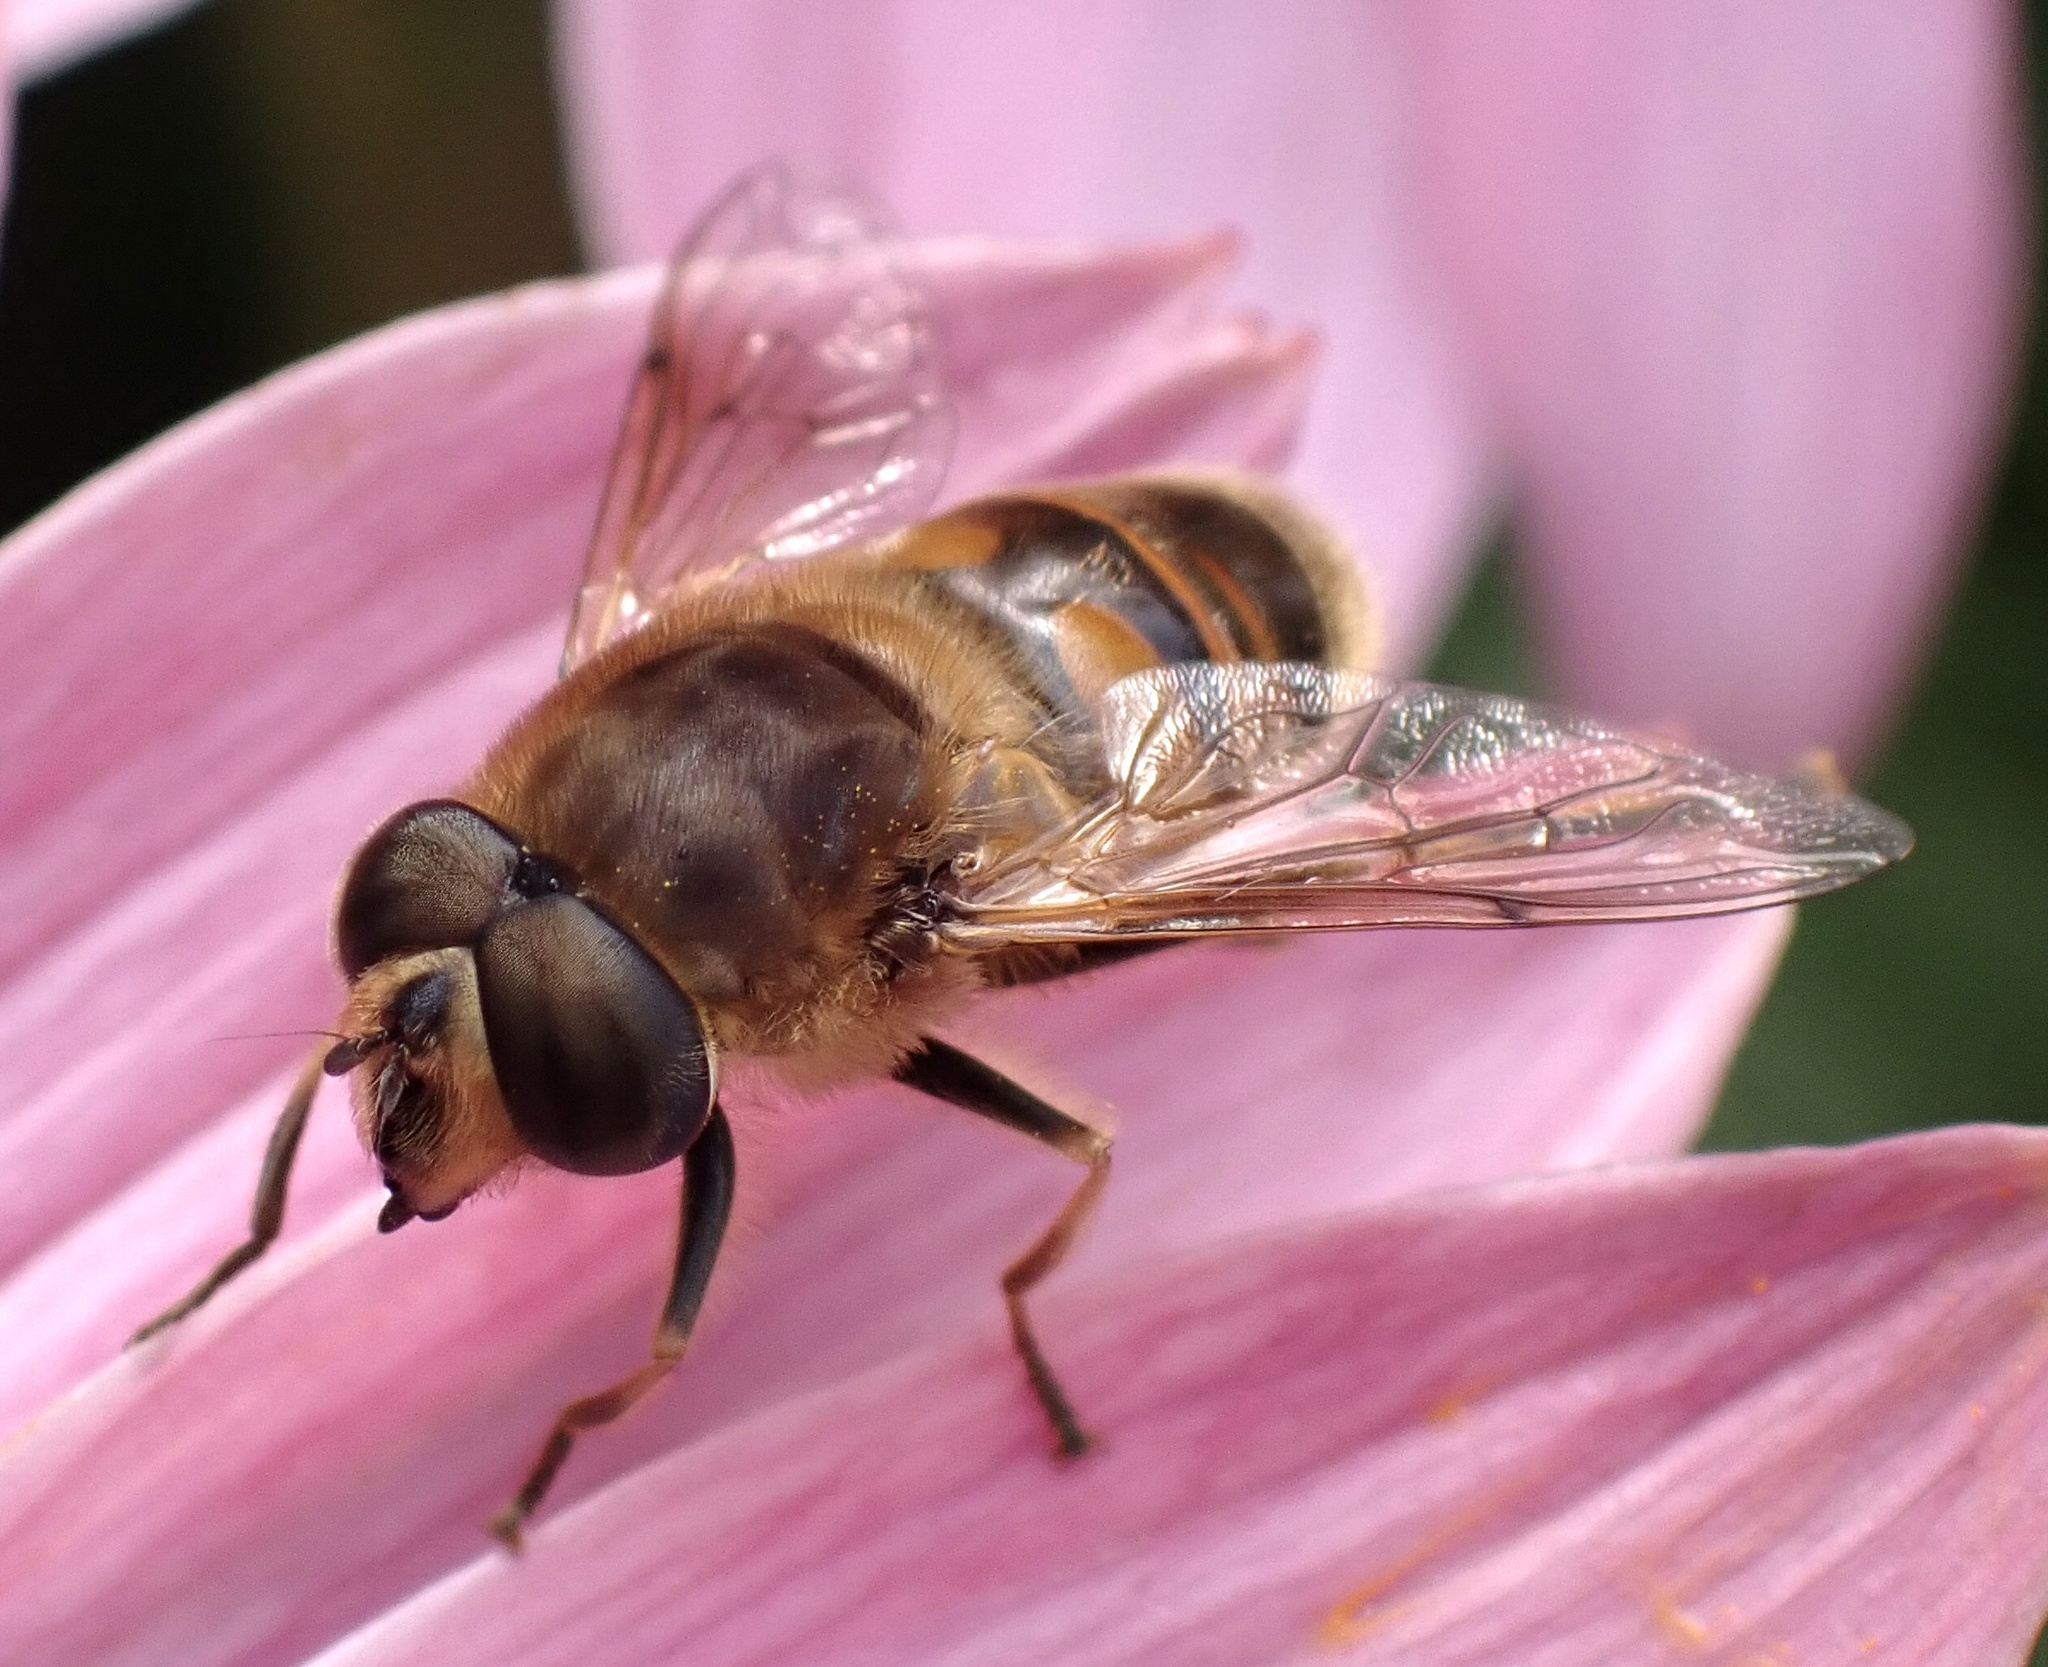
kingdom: Animalia
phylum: Arthropoda
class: Insecta
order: Diptera
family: Syrphidae
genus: Eristalis
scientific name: Eristalis tenax
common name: Drone fly
